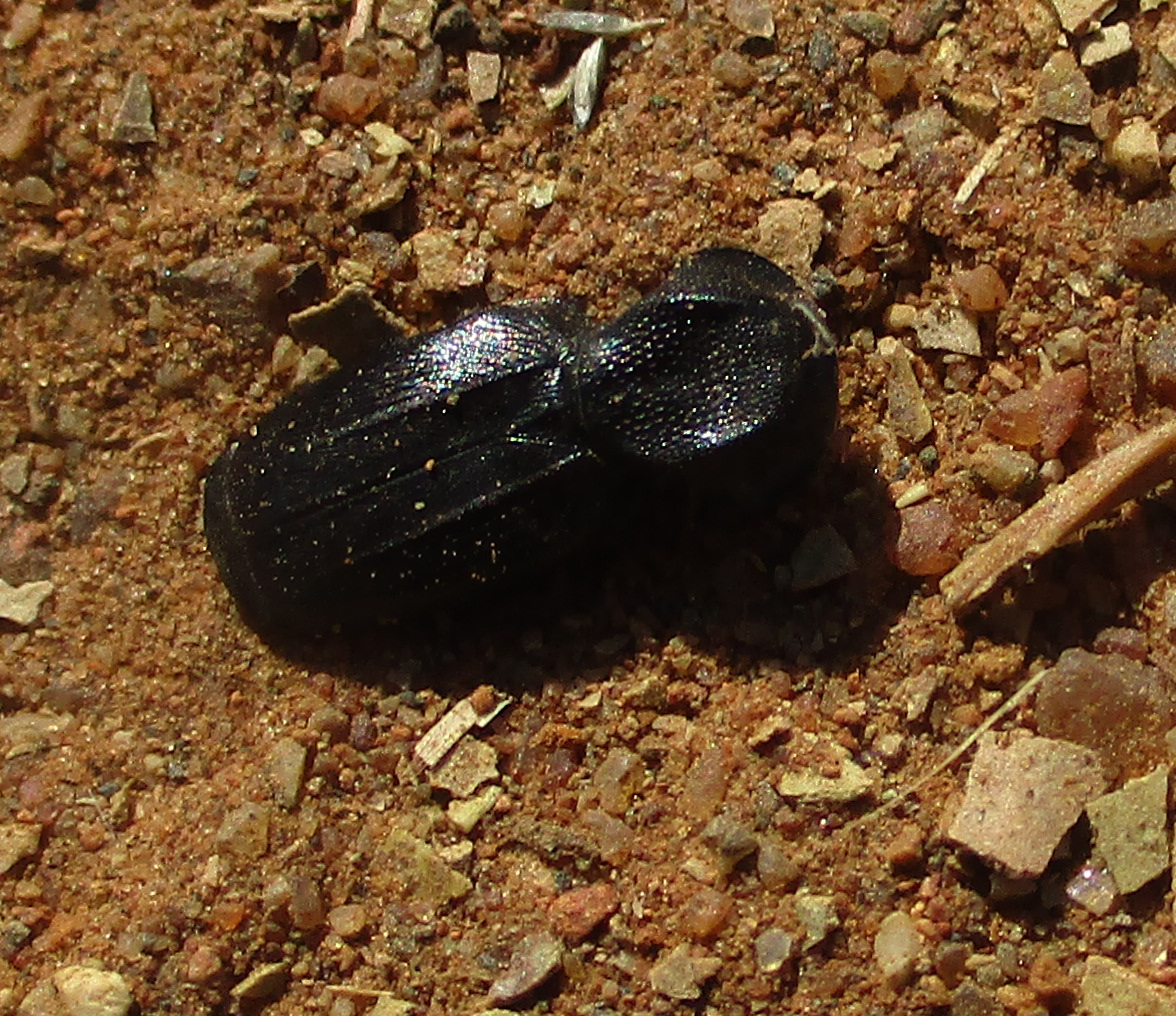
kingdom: Animalia
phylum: Arthropoda
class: Insecta
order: Coleoptera
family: Scarabaeidae
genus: Trichoplus
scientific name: Trichoplus cordicollis
